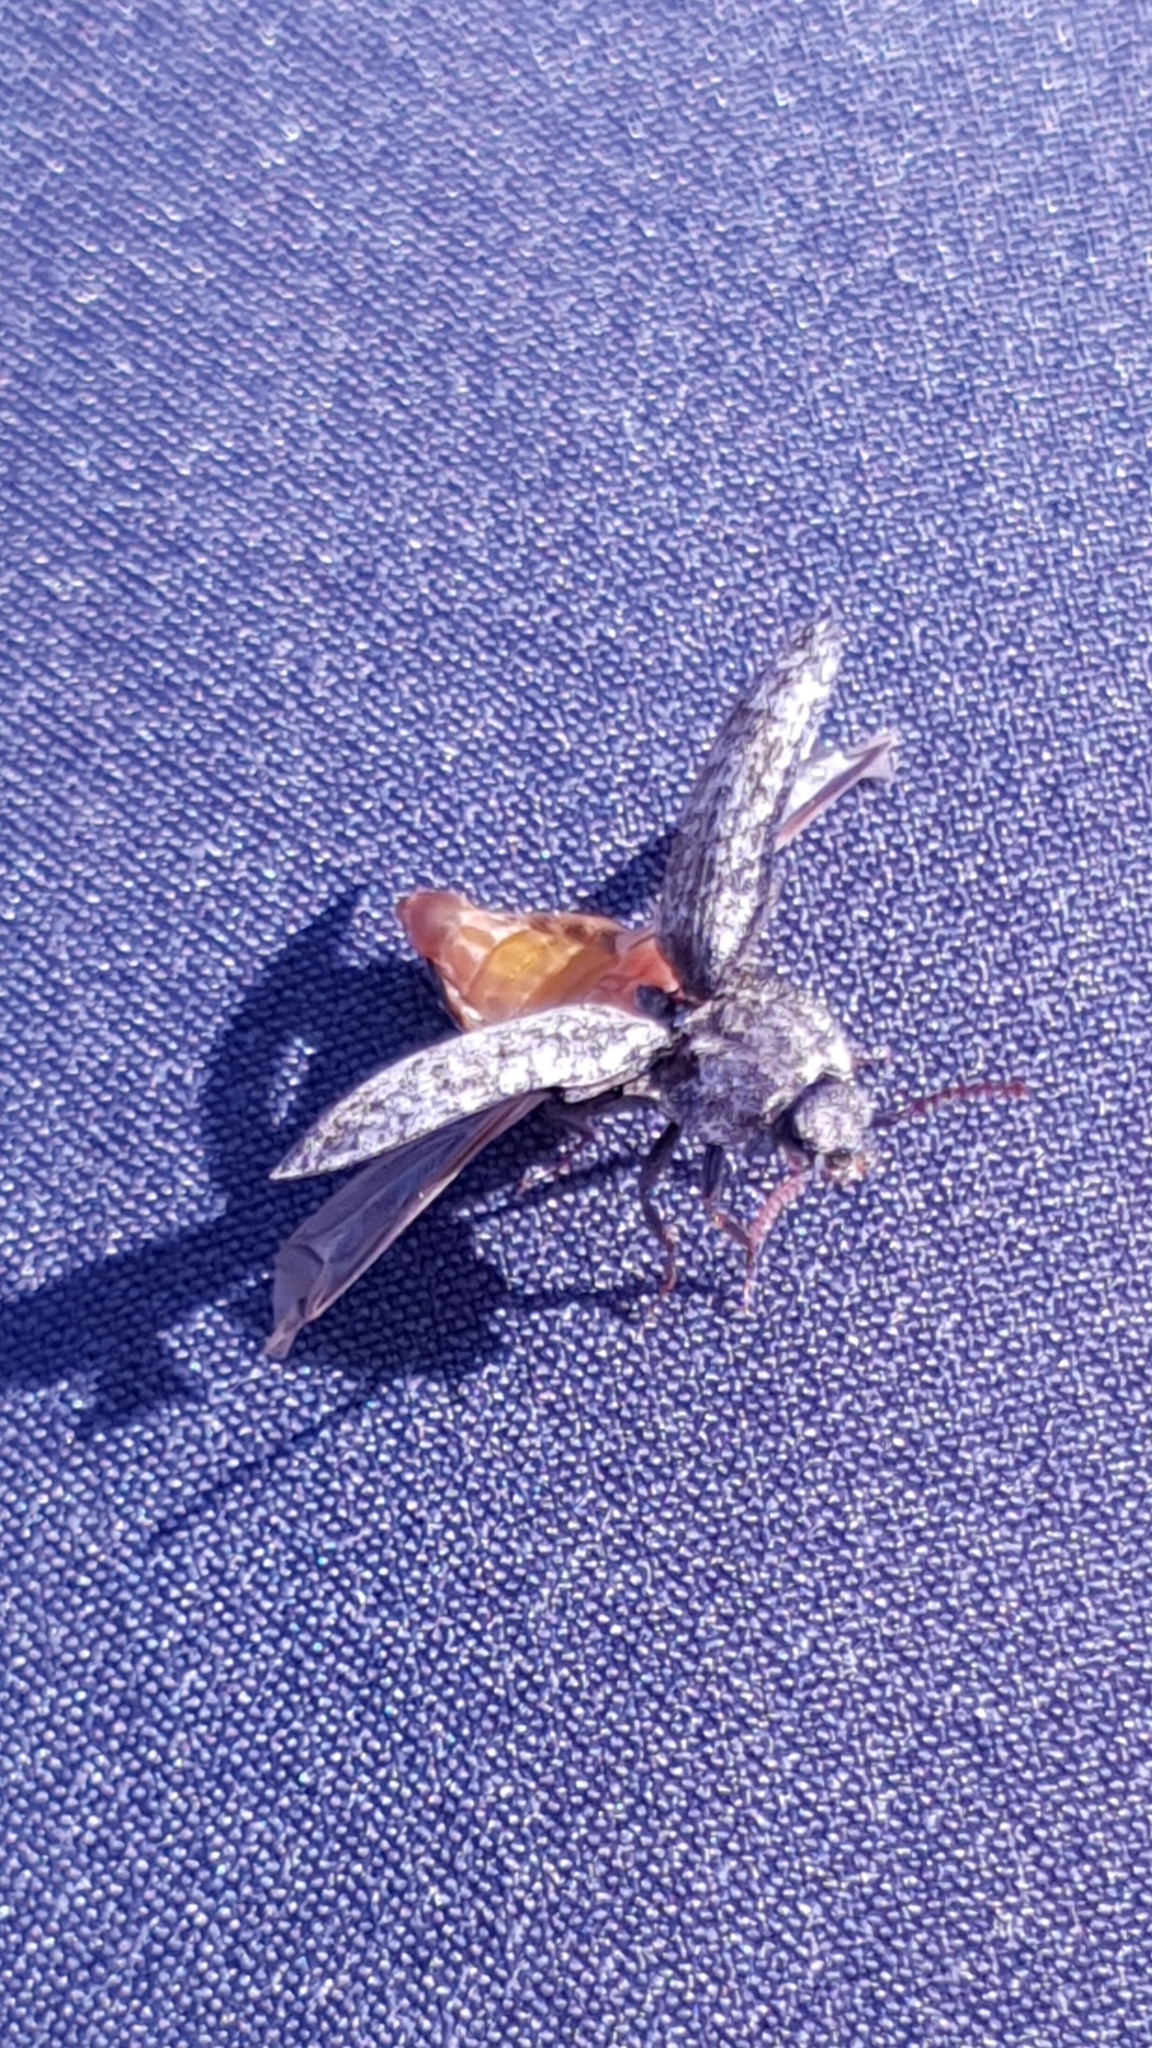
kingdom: Animalia
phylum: Arthropoda
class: Insecta
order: Coleoptera
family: Elateridae
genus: Agrypnus
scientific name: Agrypnus murinus
